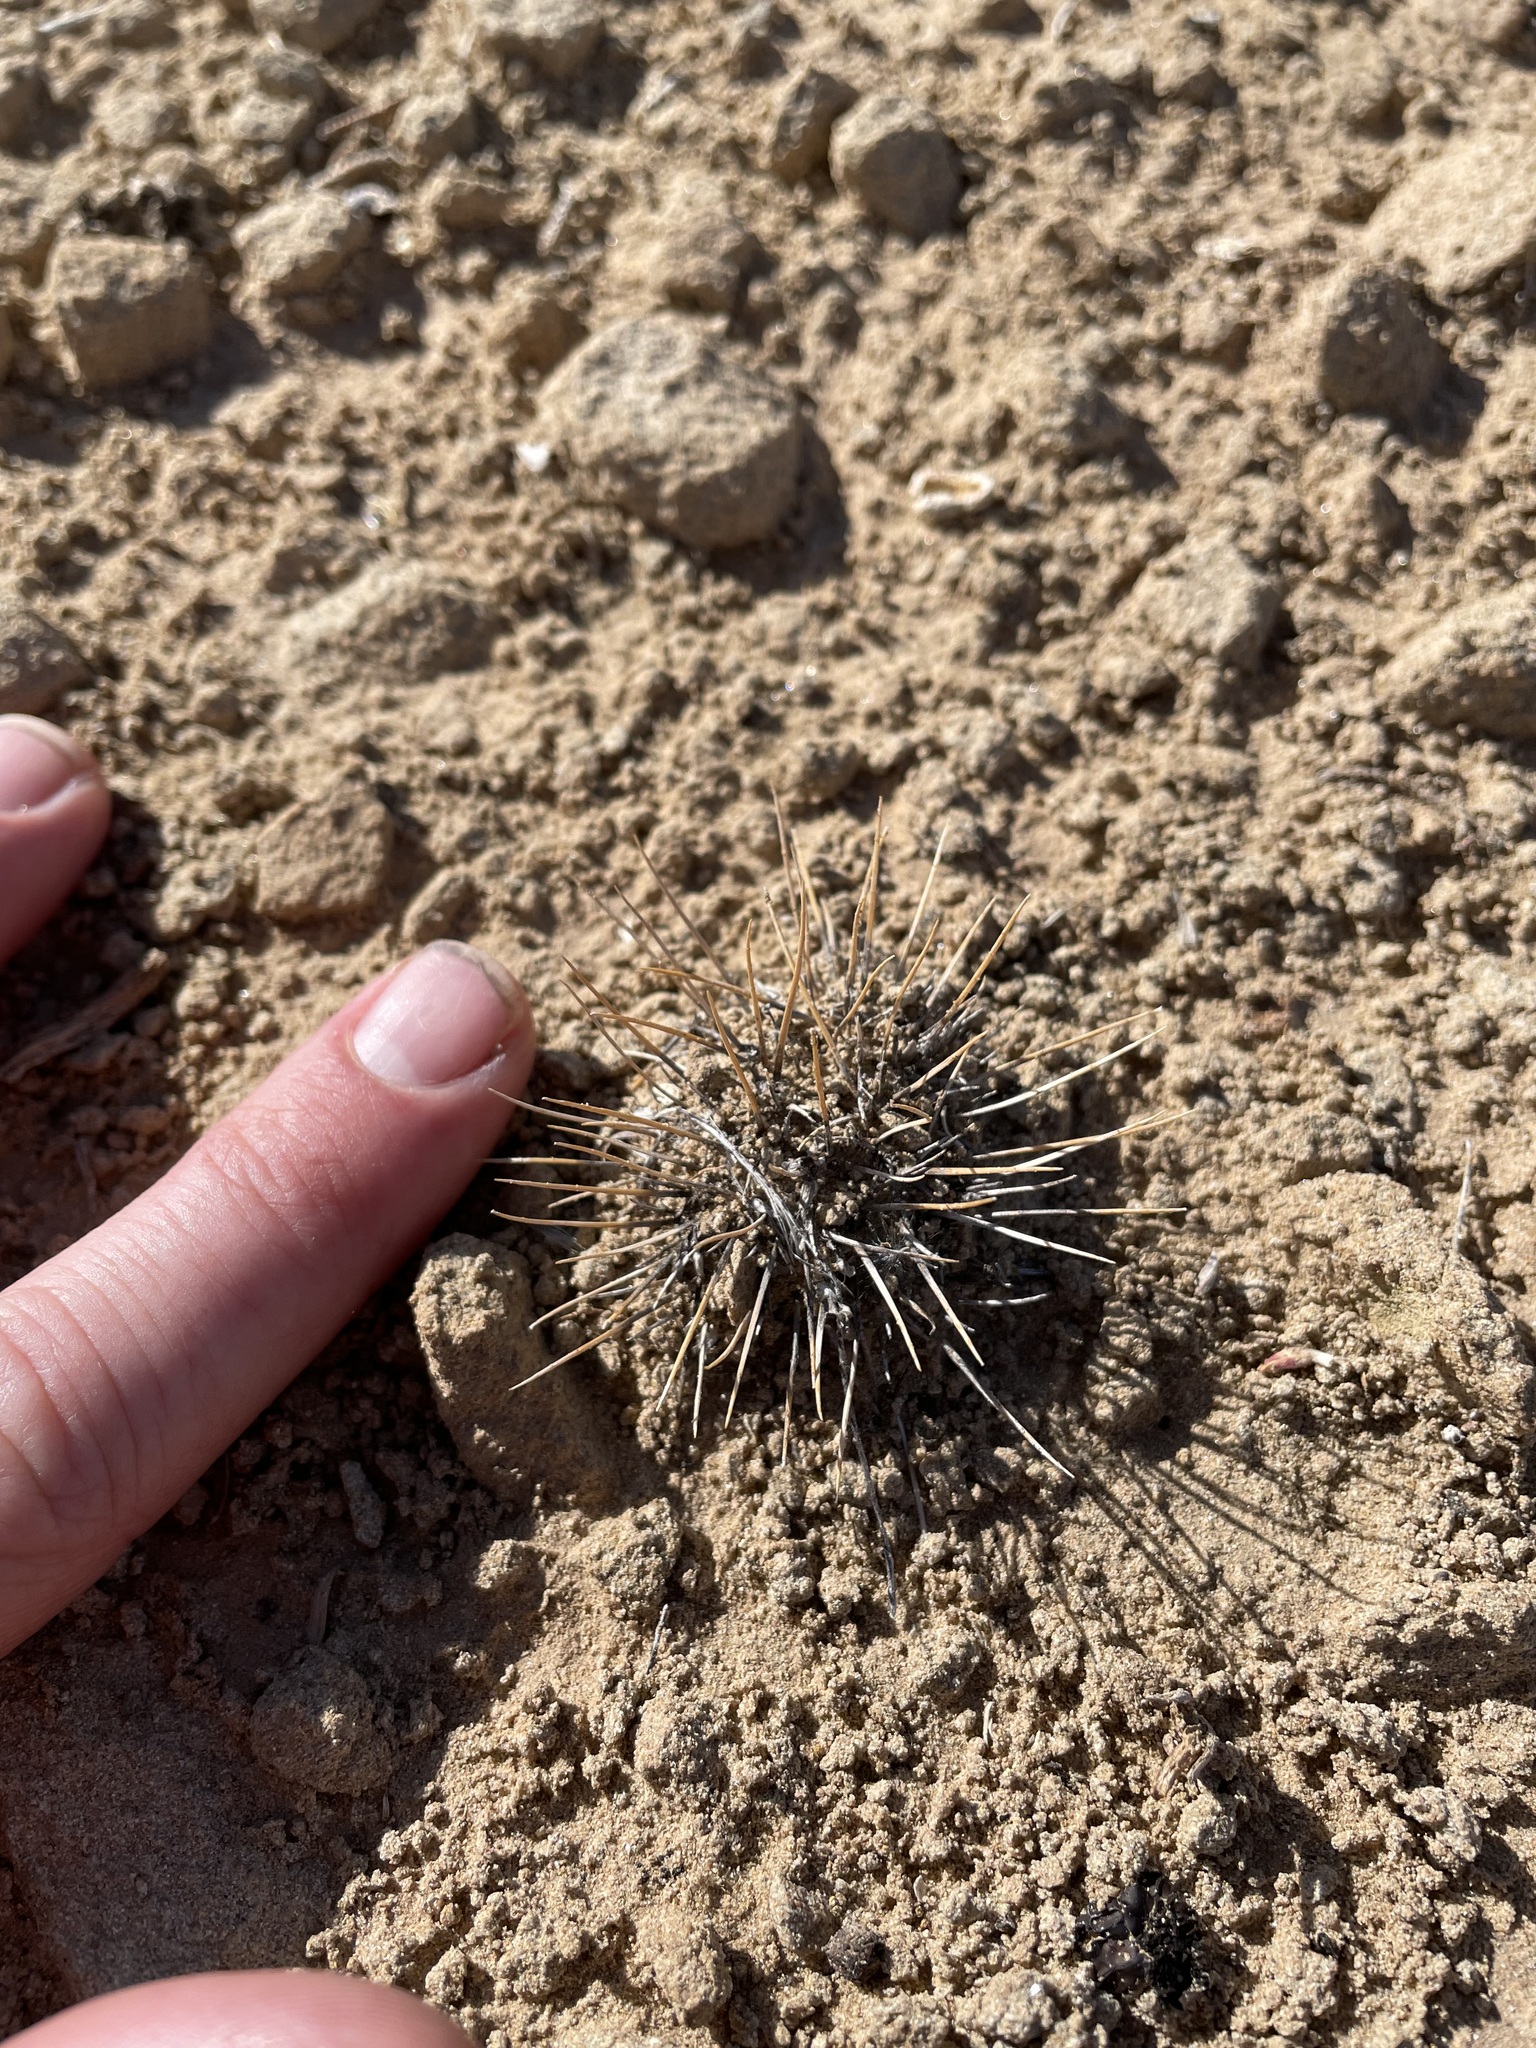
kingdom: Plantae
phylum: Tracheophyta
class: Magnoliopsida
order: Fabales
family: Fabaceae
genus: Astragalus
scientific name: Astragalus humillimus
